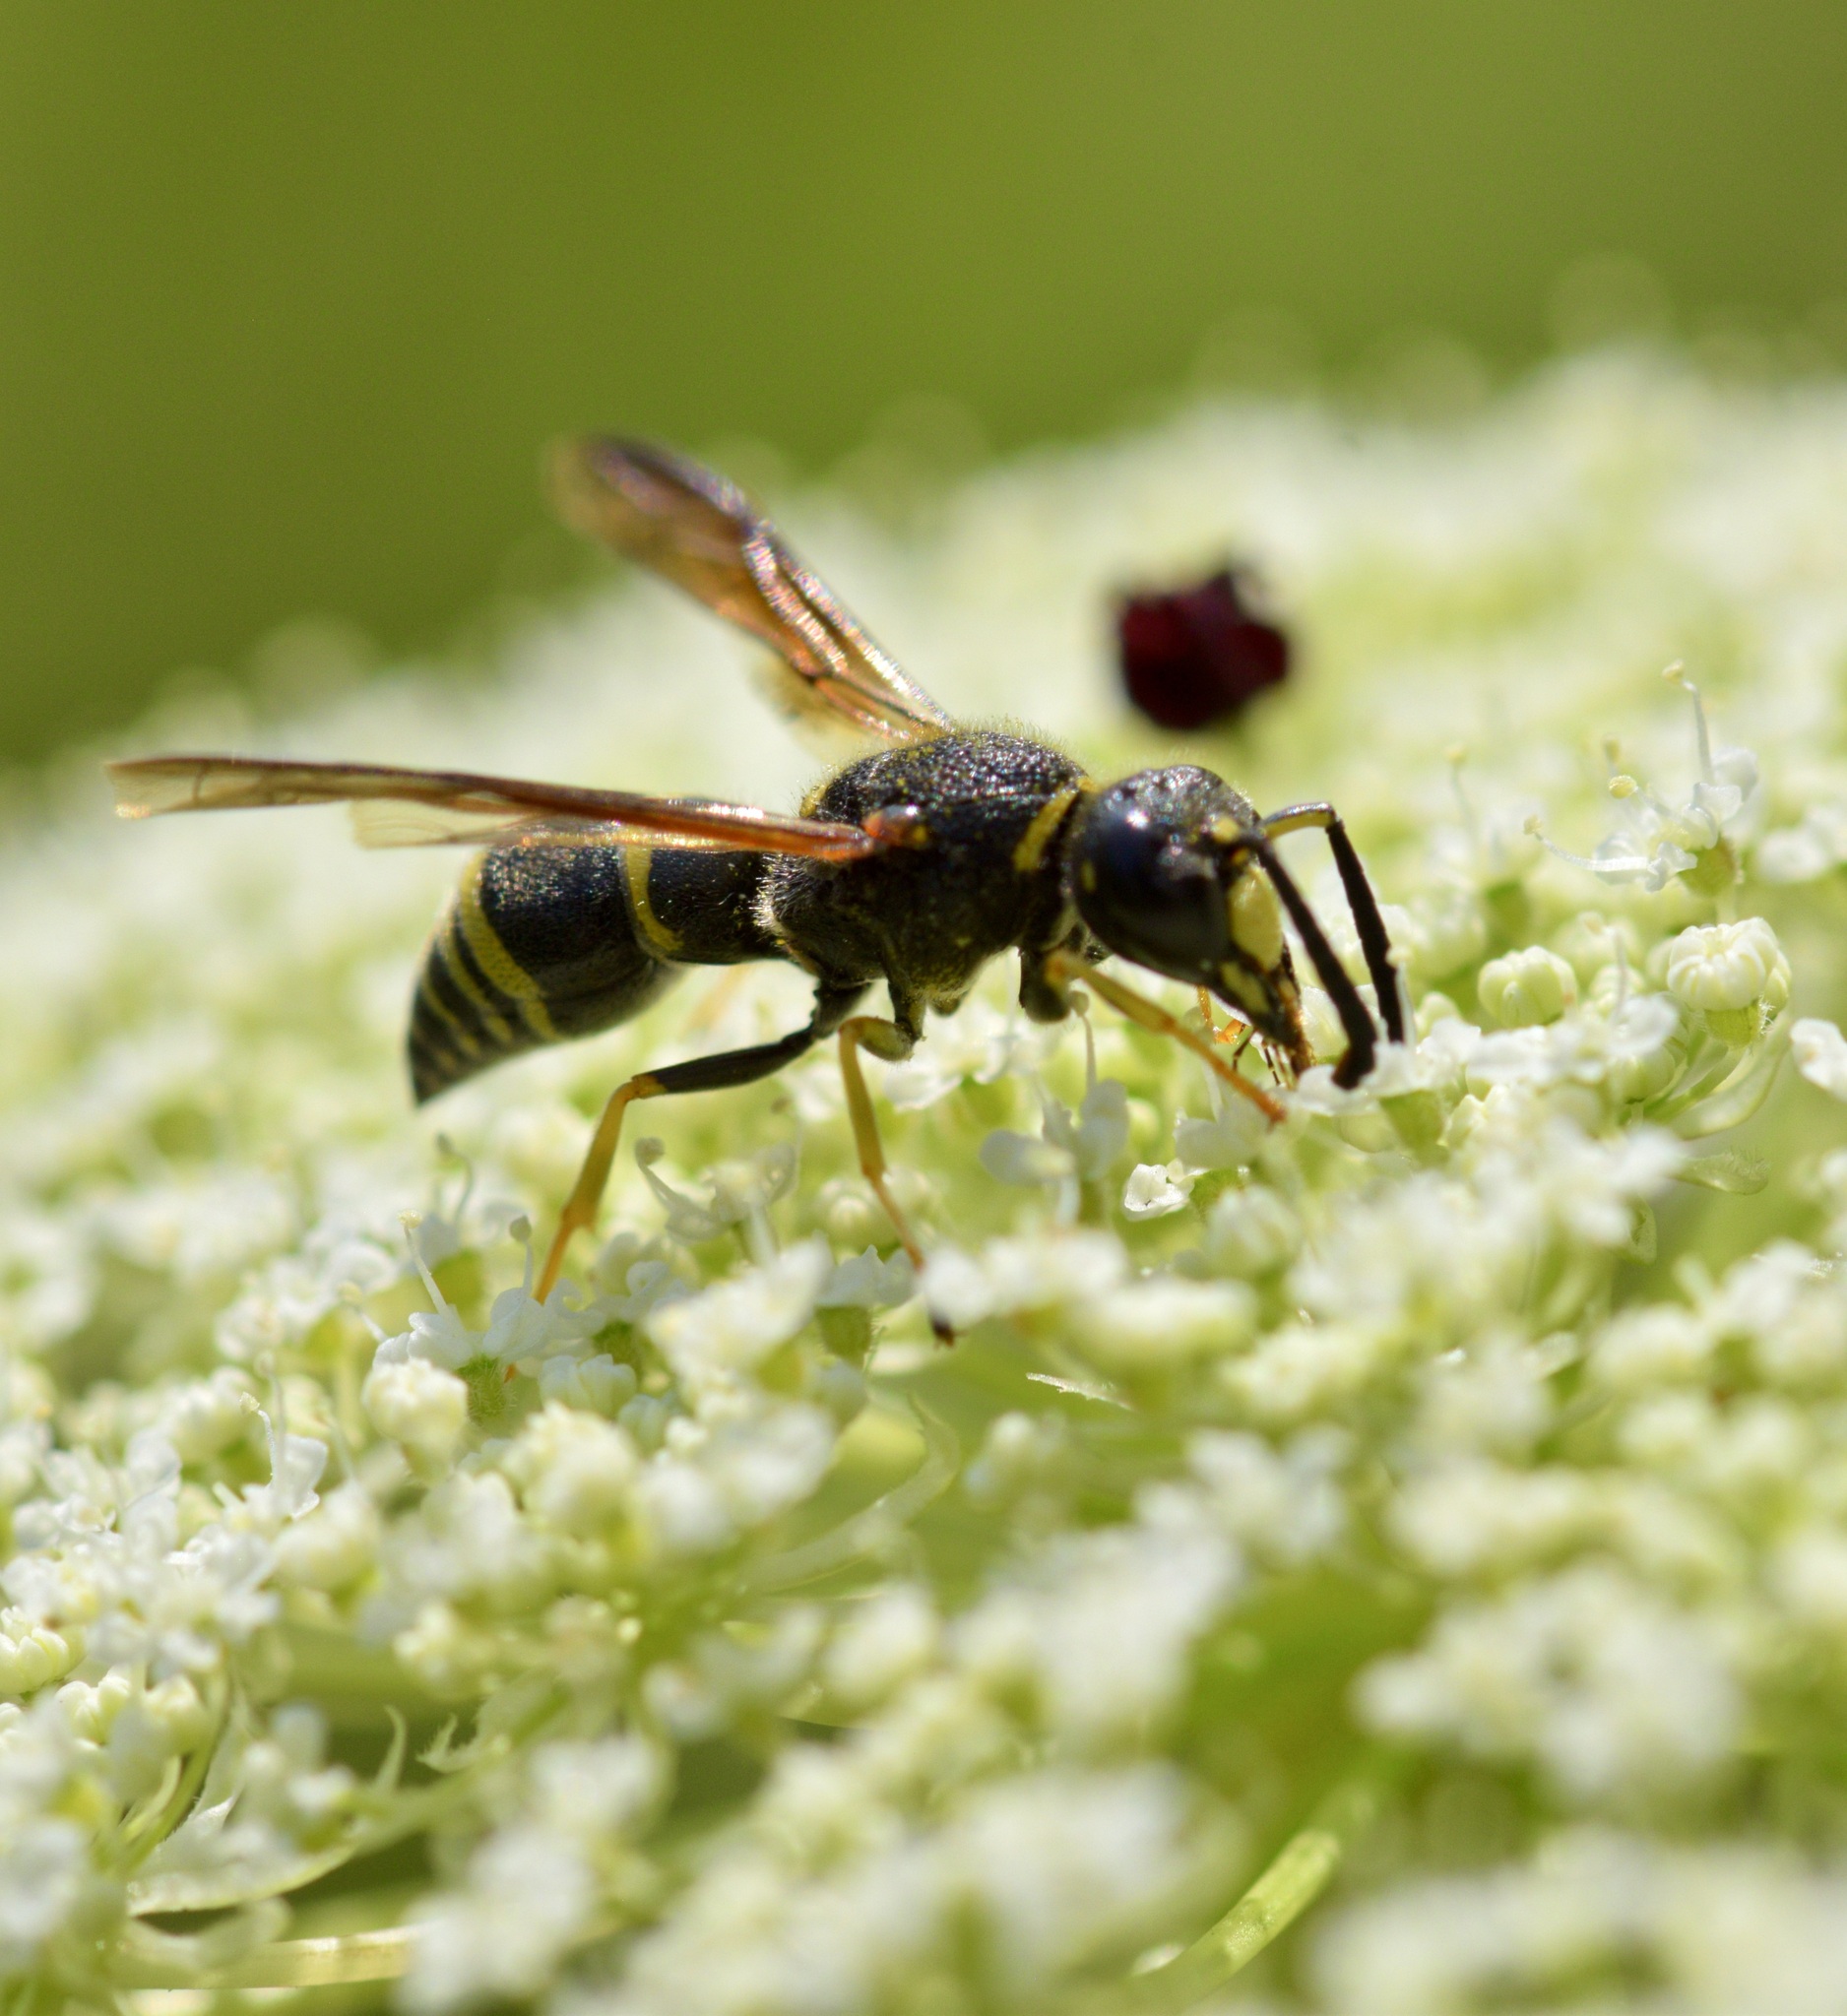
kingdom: Animalia
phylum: Arthropoda
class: Insecta
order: Hymenoptera
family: Eumenidae
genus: Euodynerus
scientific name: Euodynerus foraminatus
